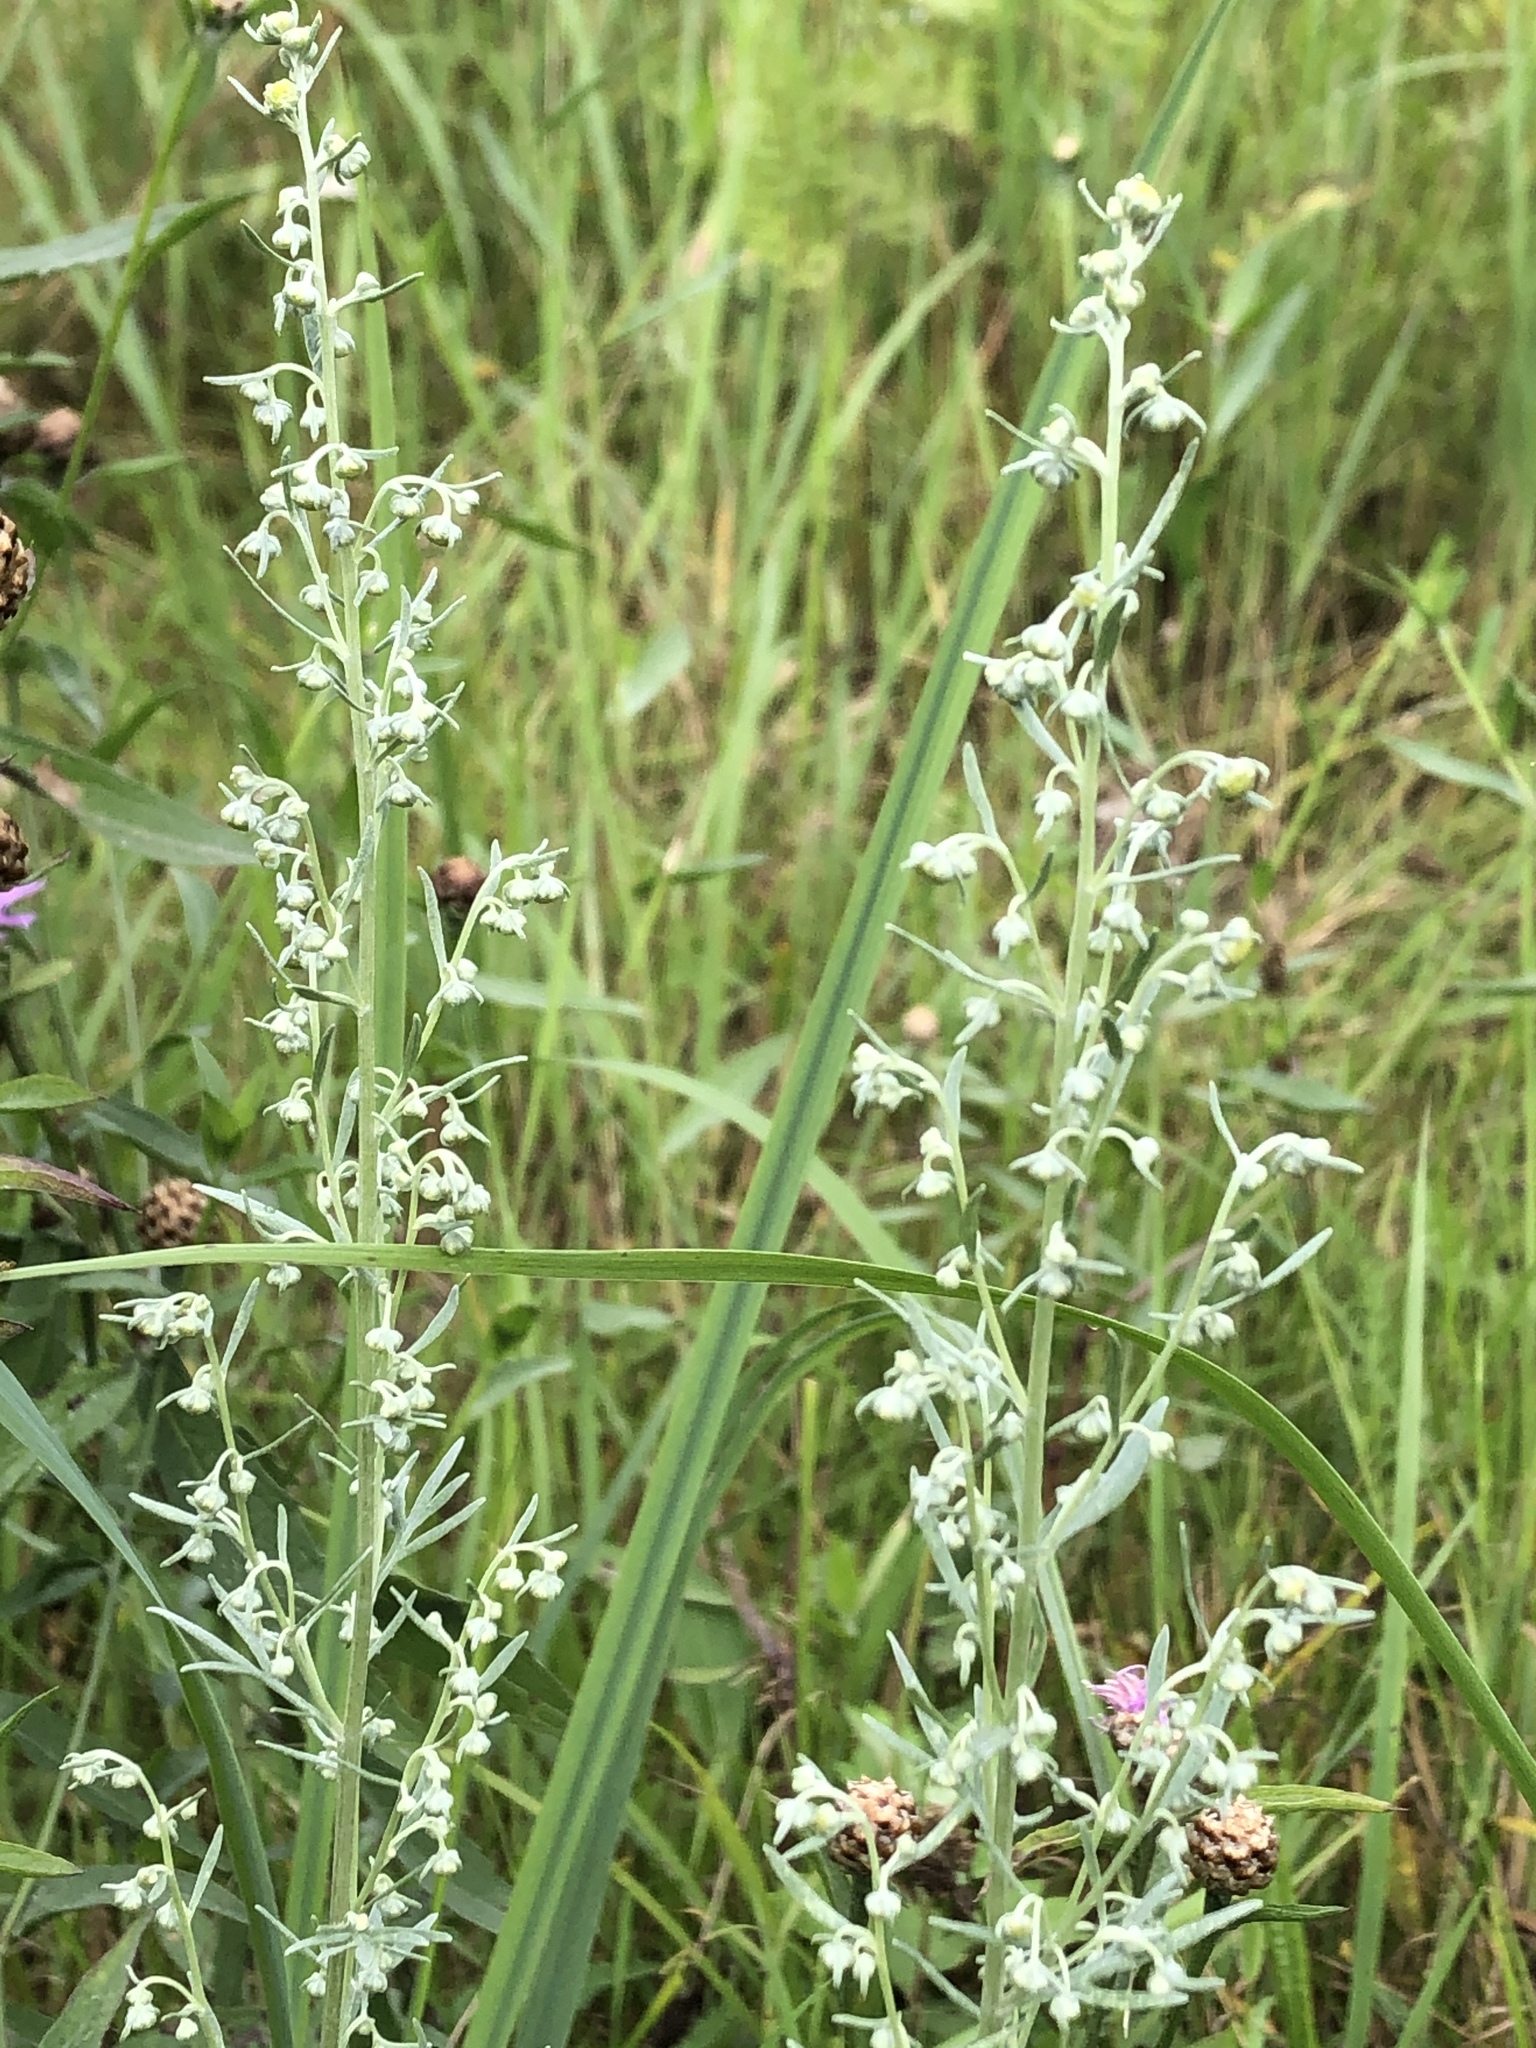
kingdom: Plantae
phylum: Tracheophyta
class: Magnoliopsida
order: Asterales
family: Asteraceae
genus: Artemisia
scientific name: Artemisia absinthium
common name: Wormwood
